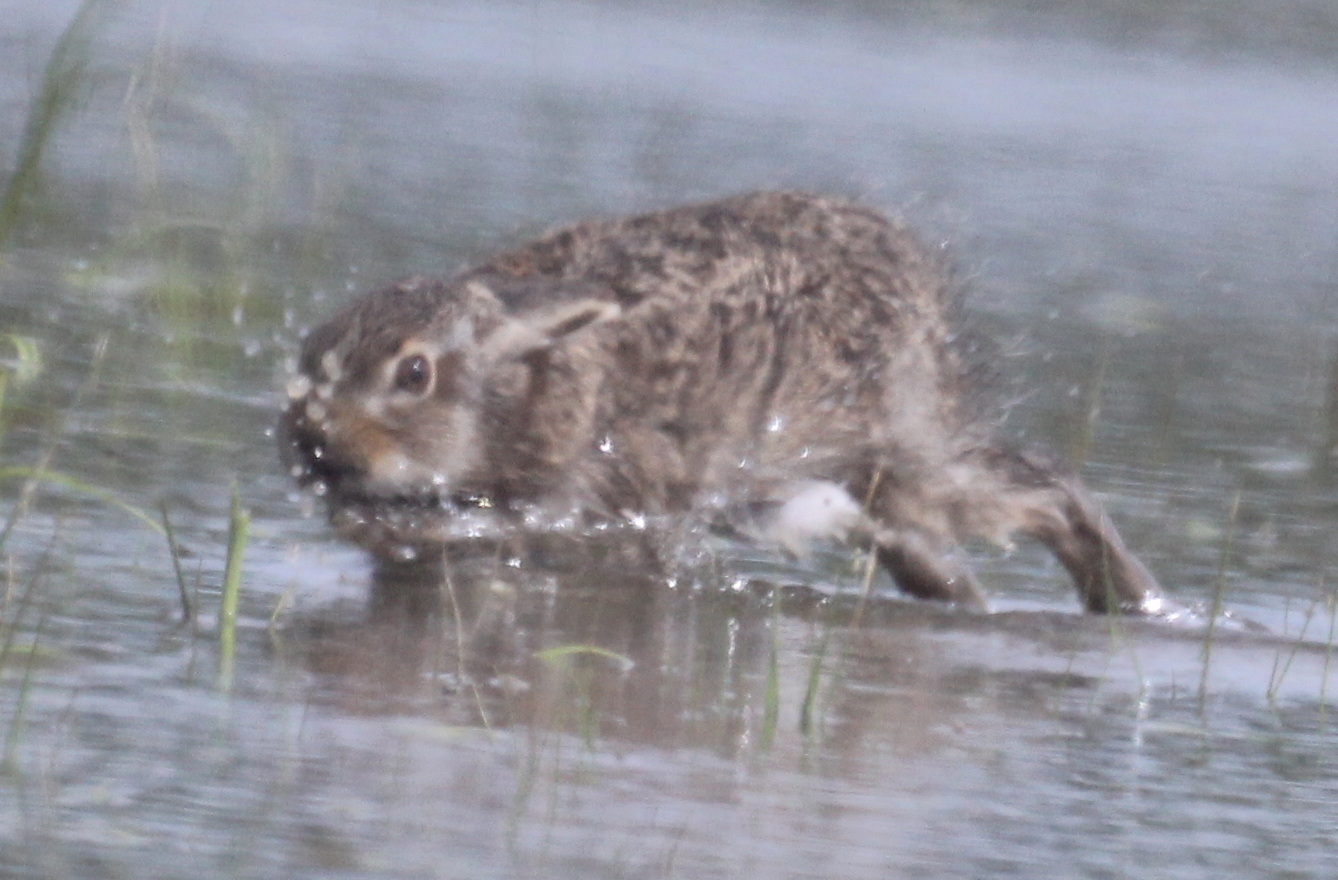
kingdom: Animalia
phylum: Chordata
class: Mammalia
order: Lagomorpha
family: Leporidae
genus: Lepus
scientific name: Lepus europaeus
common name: European hare
